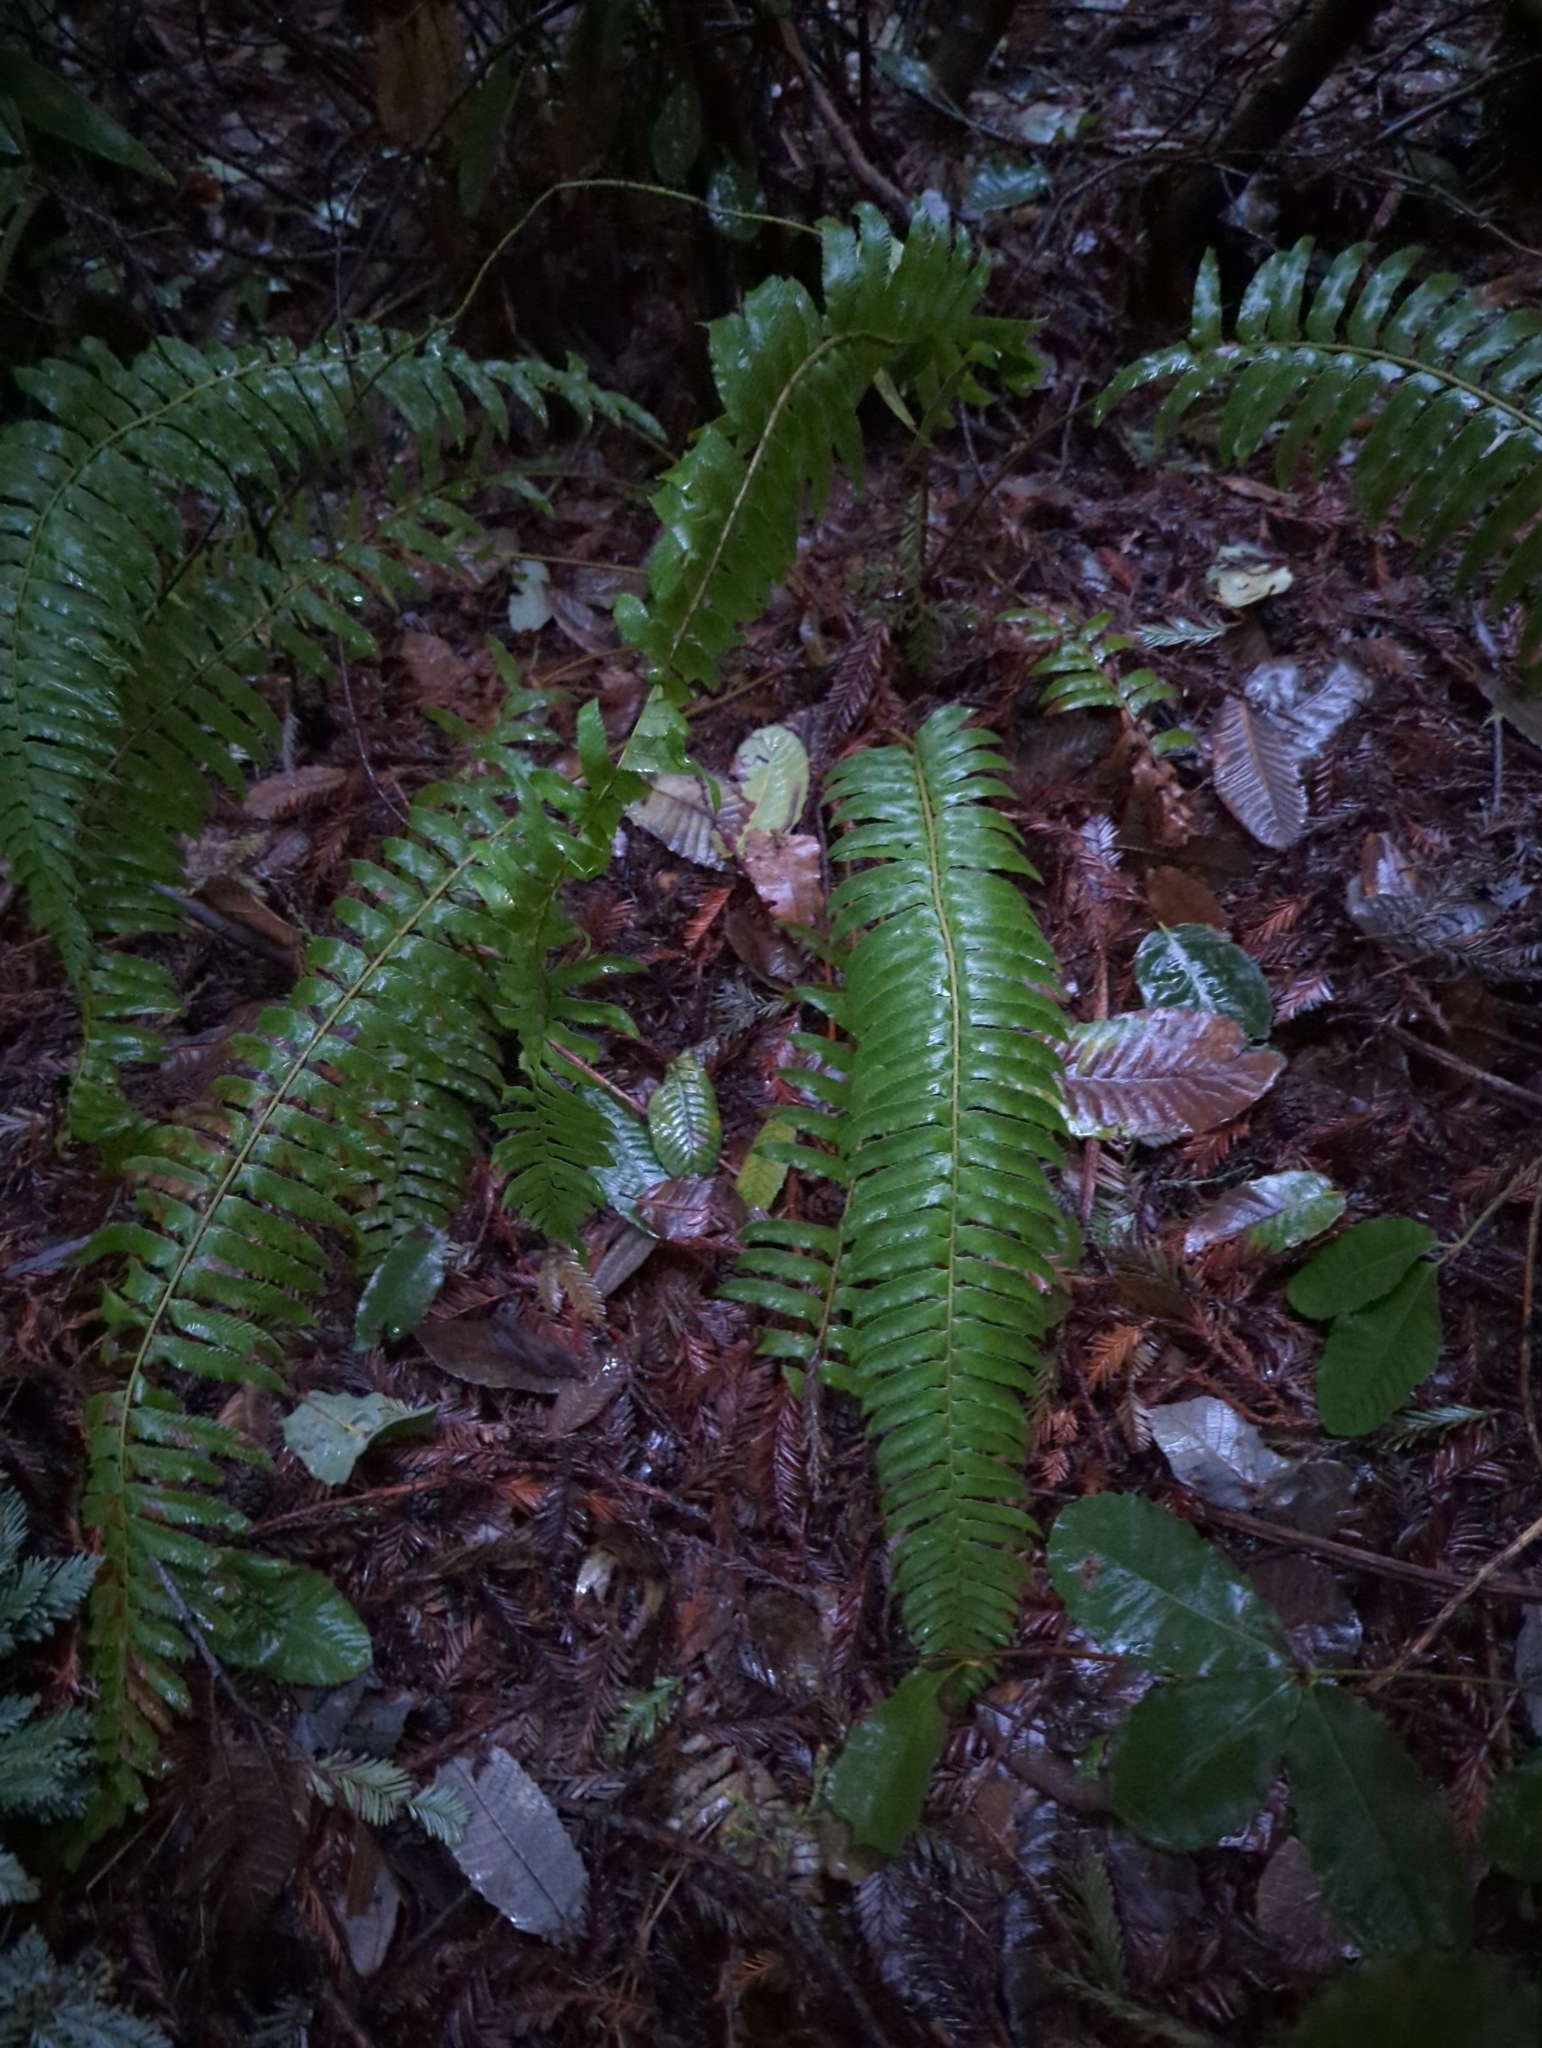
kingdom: Plantae
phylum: Tracheophyta
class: Polypodiopsida
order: Polypodiales
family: Dryopteridaceae
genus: Polystichum
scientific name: Polystichum munitum
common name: Western sword-fern
